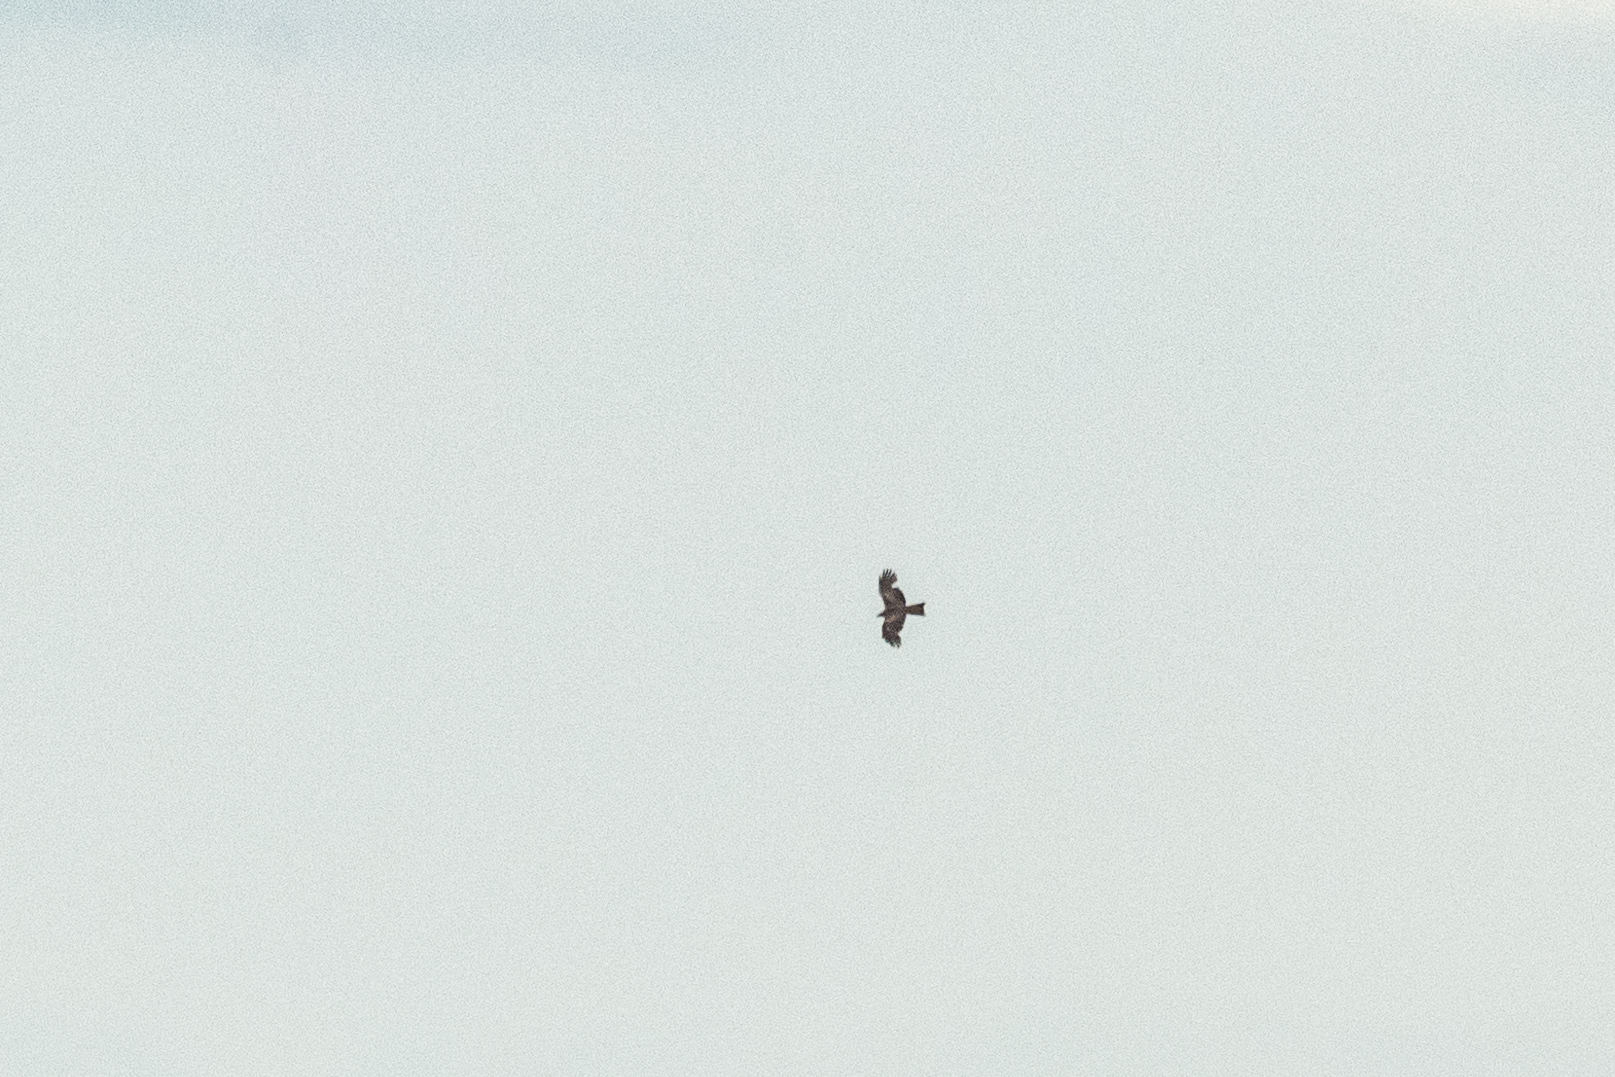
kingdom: Animalia
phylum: Chordata
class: Aves
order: Accipitriformes
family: Accipitridae
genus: Milvus
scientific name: Milvus migrans
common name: Black kite
